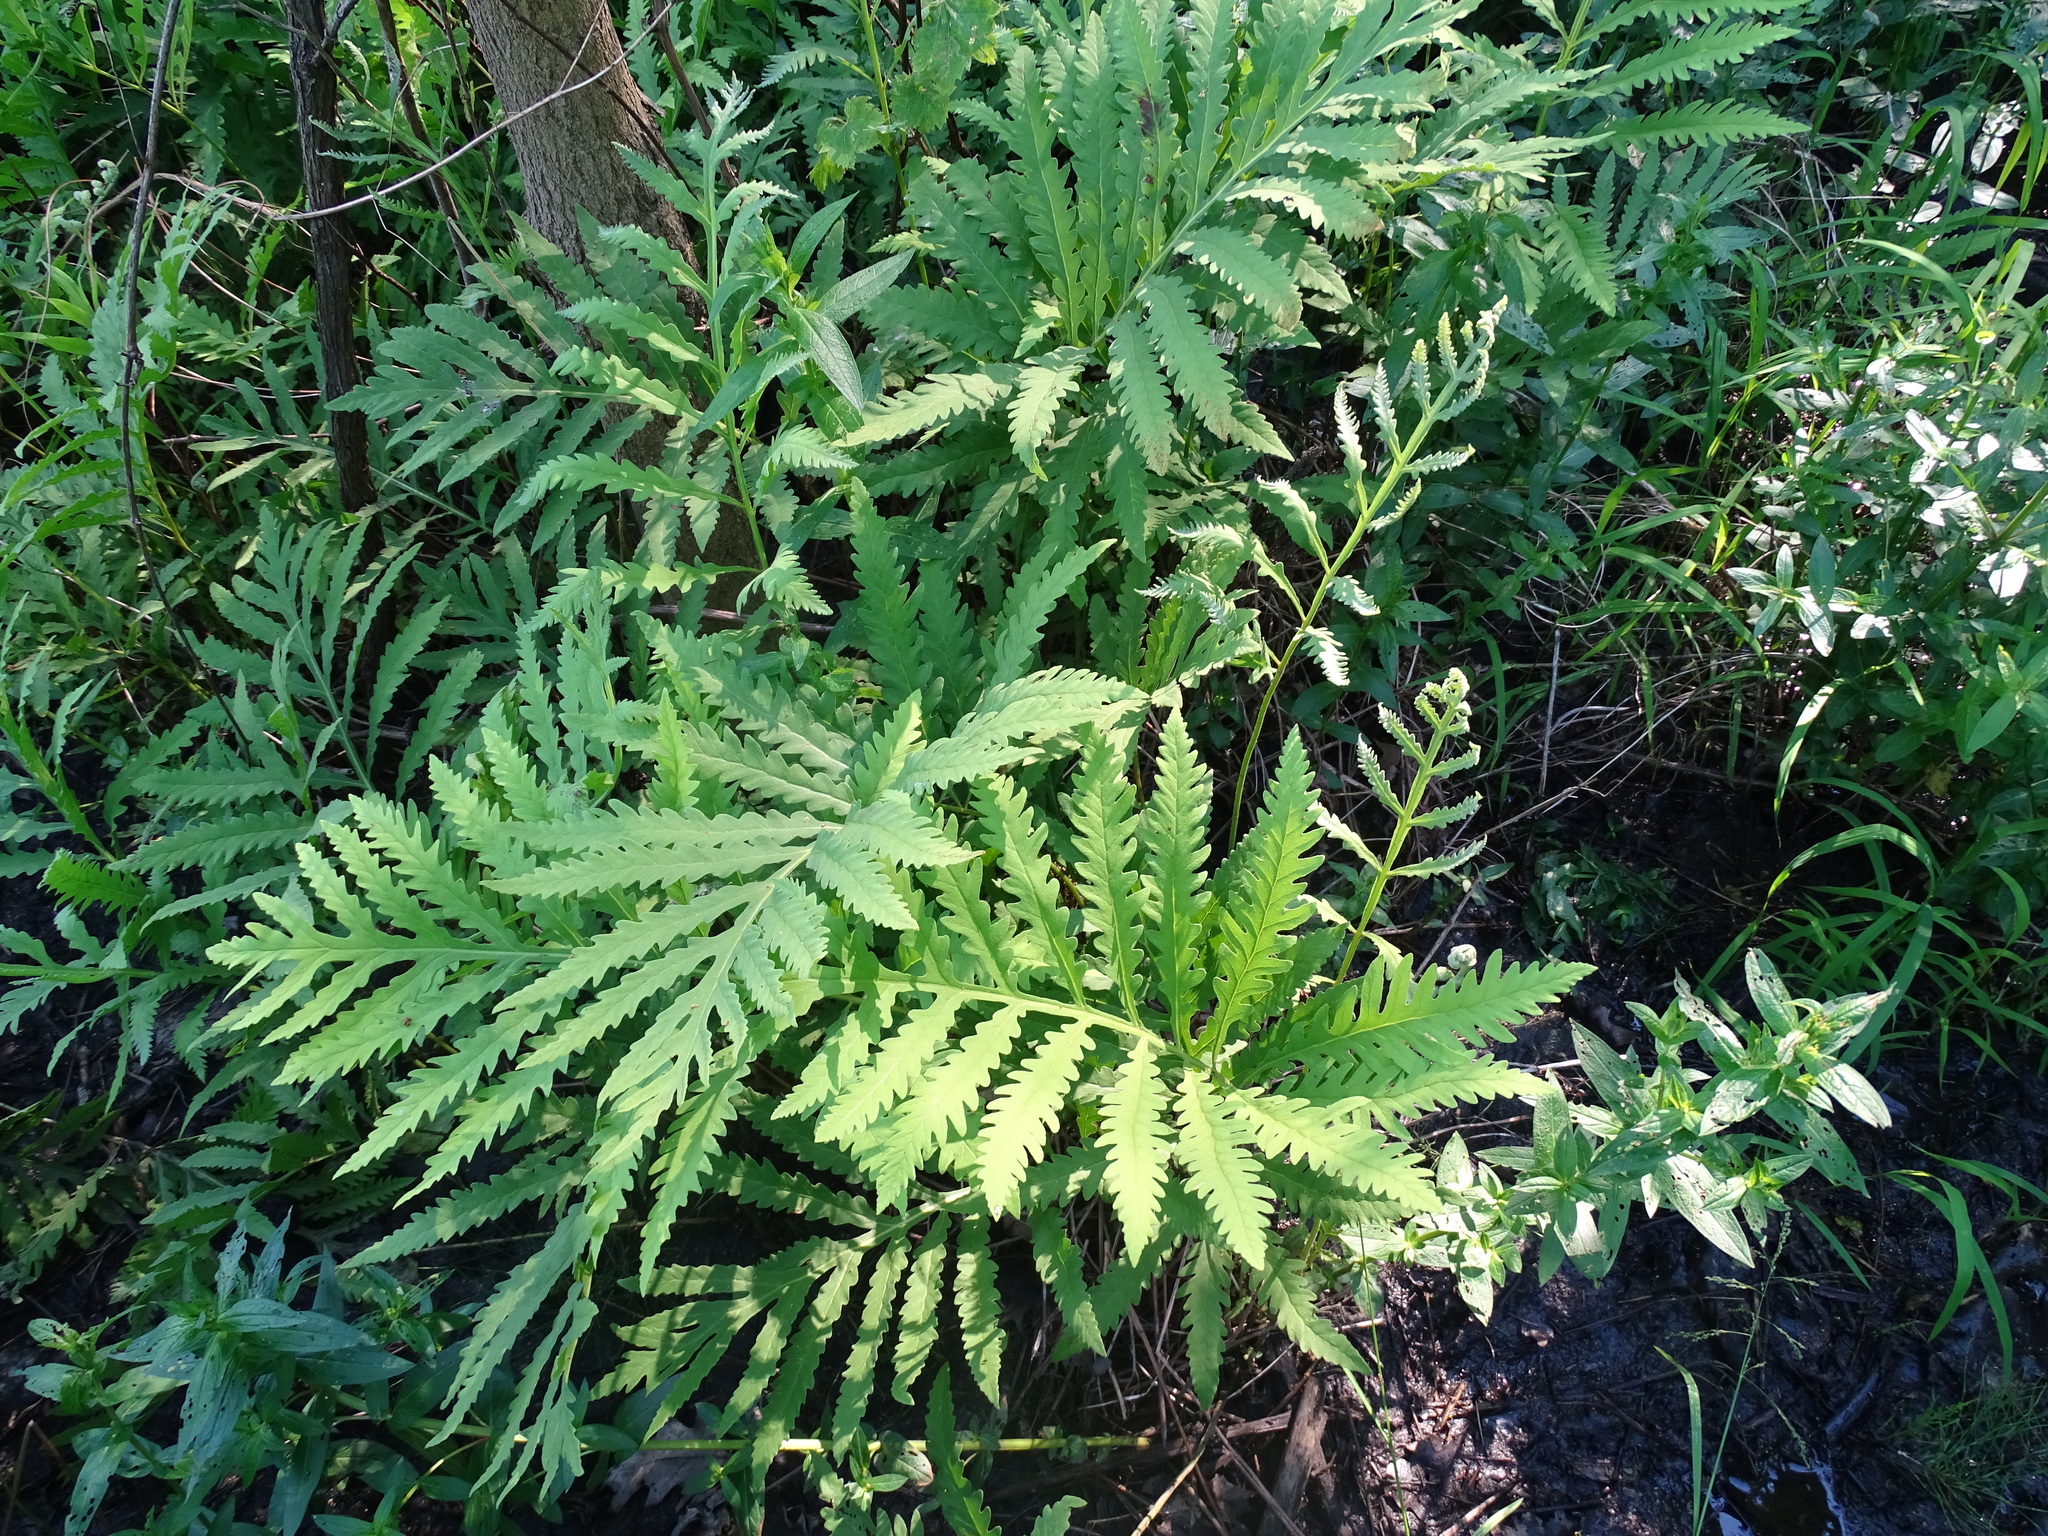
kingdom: Plantae
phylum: Tracheophyta
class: Polypodiopsida
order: Polypodiales
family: Onocleaceae
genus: Onoclea
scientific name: Onoclea sensibilis
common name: Sensitive fern
